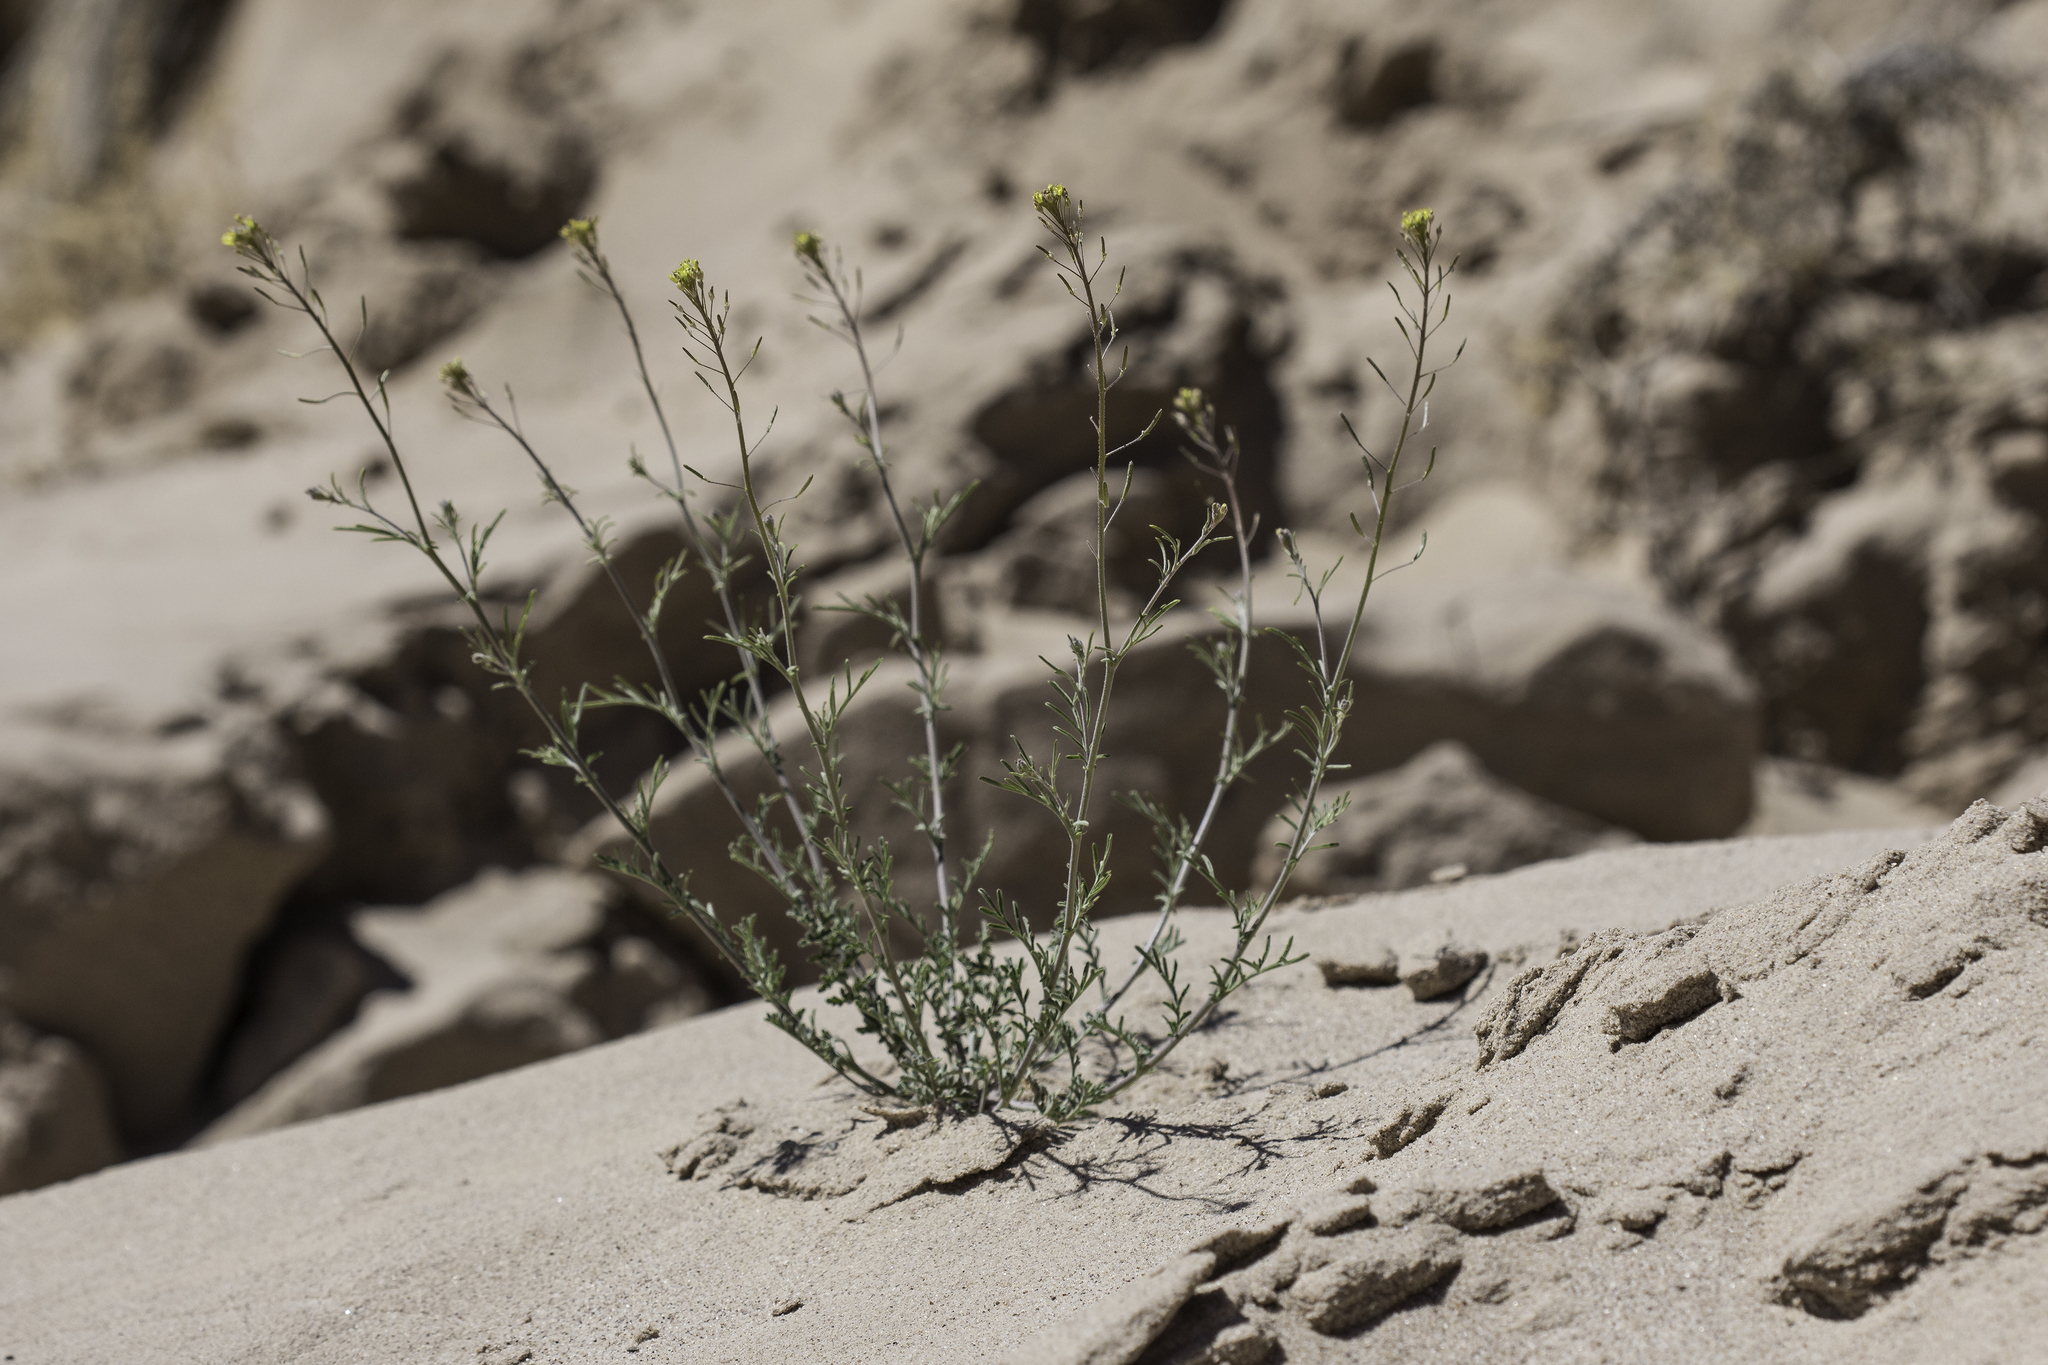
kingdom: Plantae
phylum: Tracheophyta
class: Magnoliopsida
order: Brassicales
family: Brassicaceae
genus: Descurainia
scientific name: Descurainia pinnata
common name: Western tansy mustard
